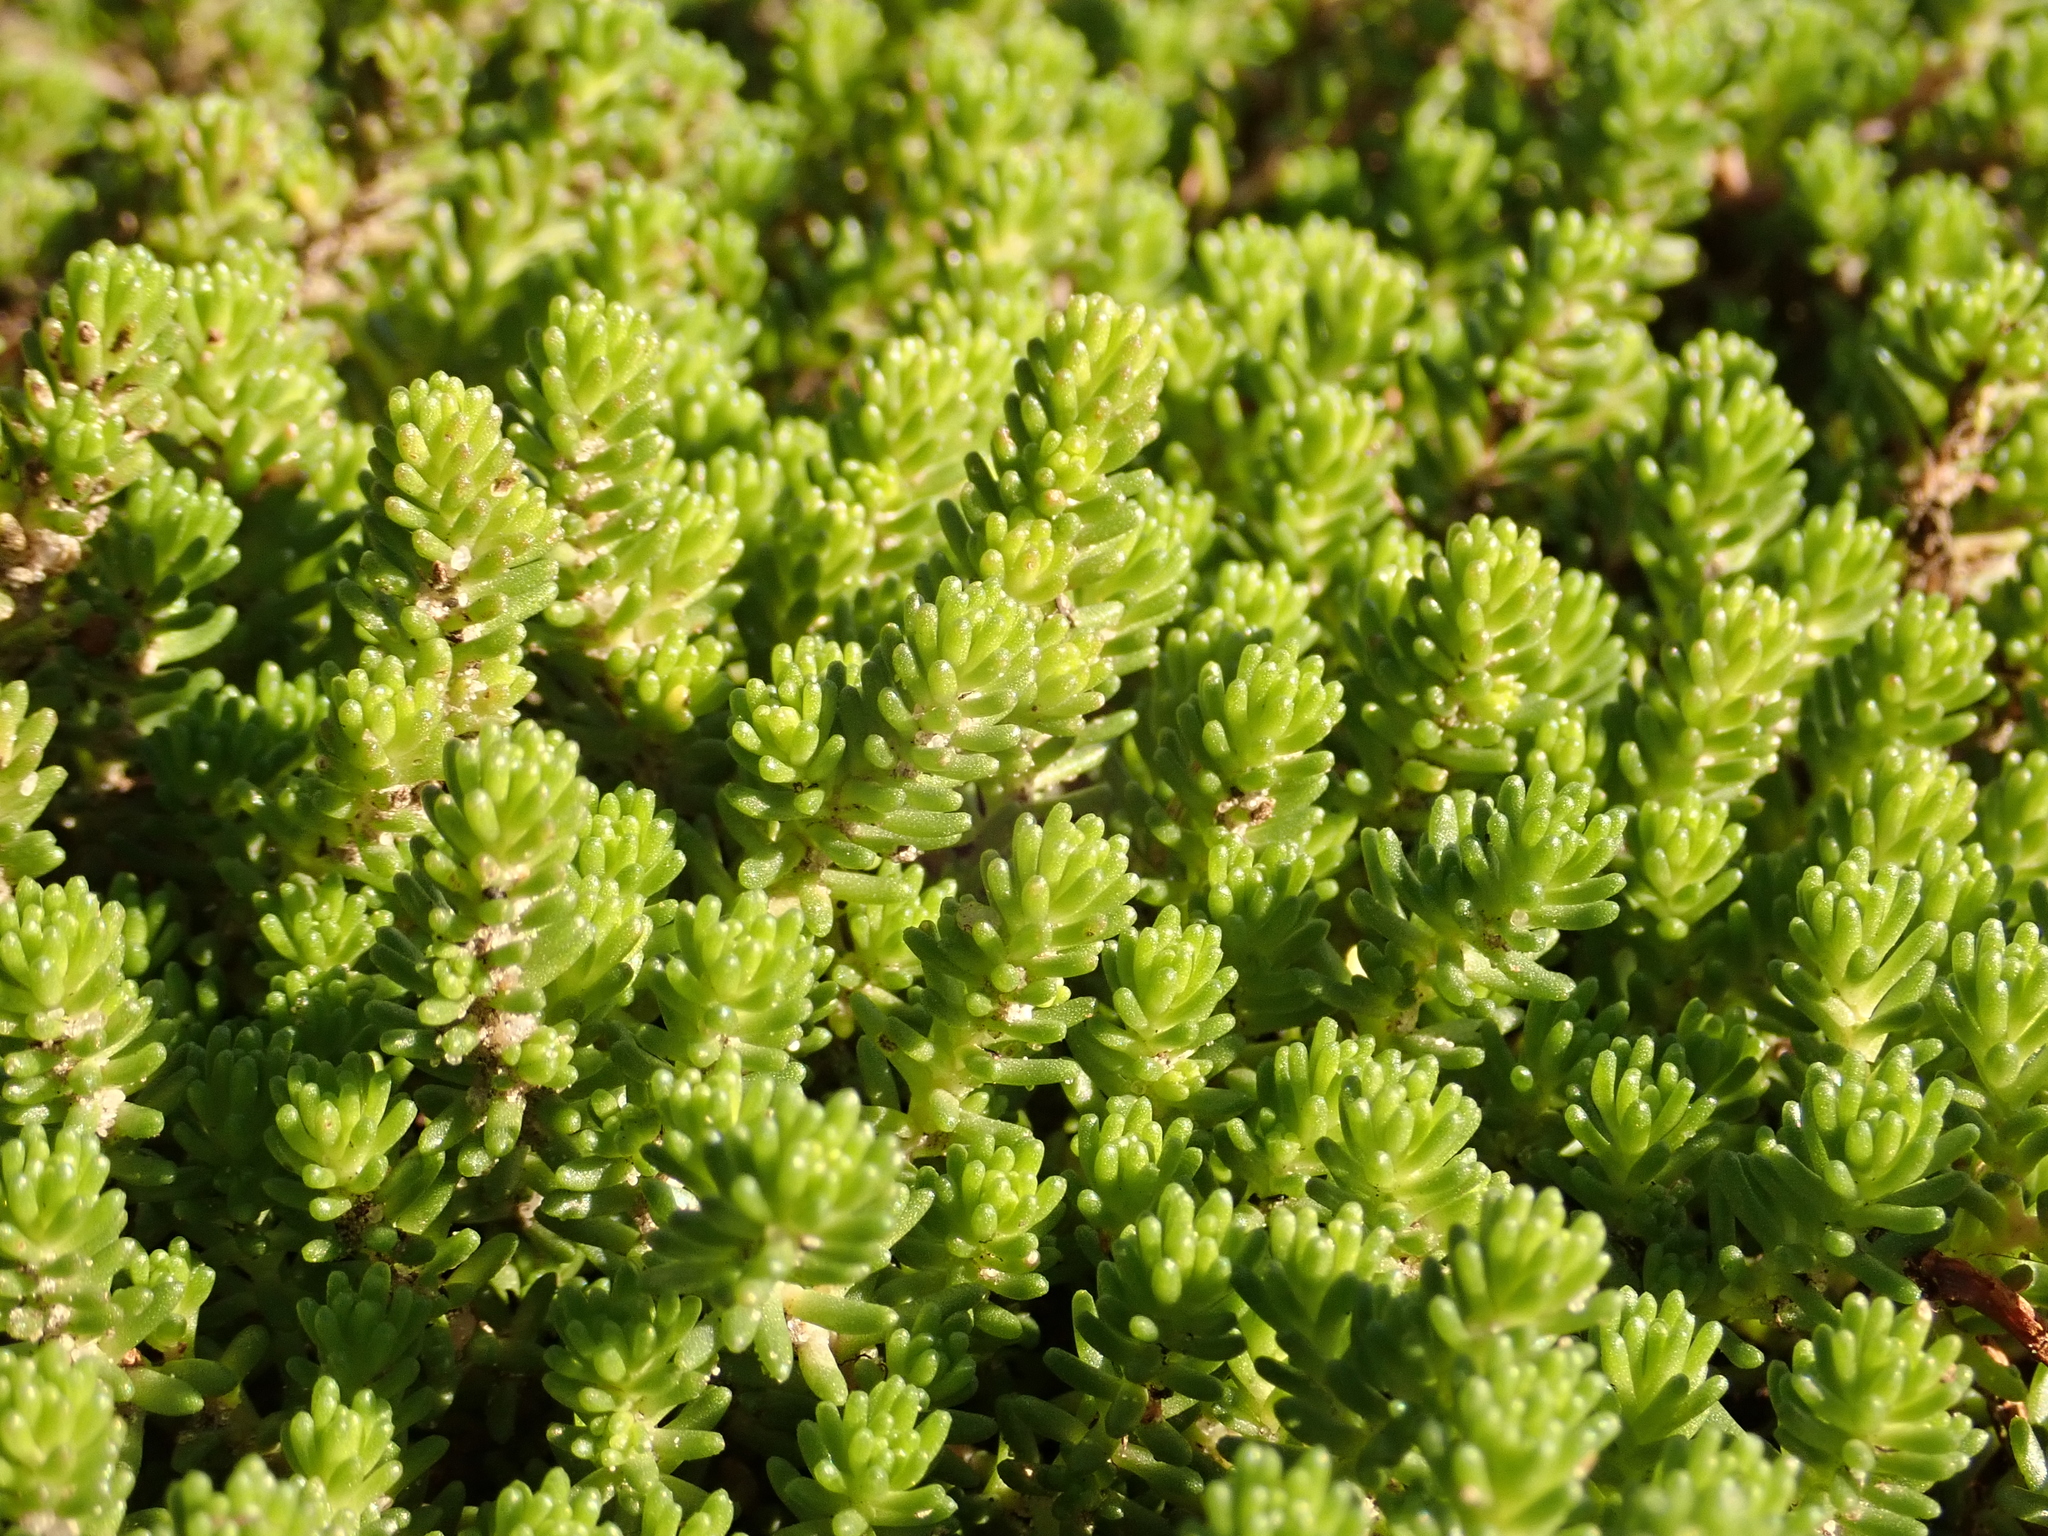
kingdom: Plantae
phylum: Tracheophyta
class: Magnoliopsida
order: Saxifragales
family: Crassulaceae
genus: Sedum
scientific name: Sedum sexangulare
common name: Tasteless stonecrop
